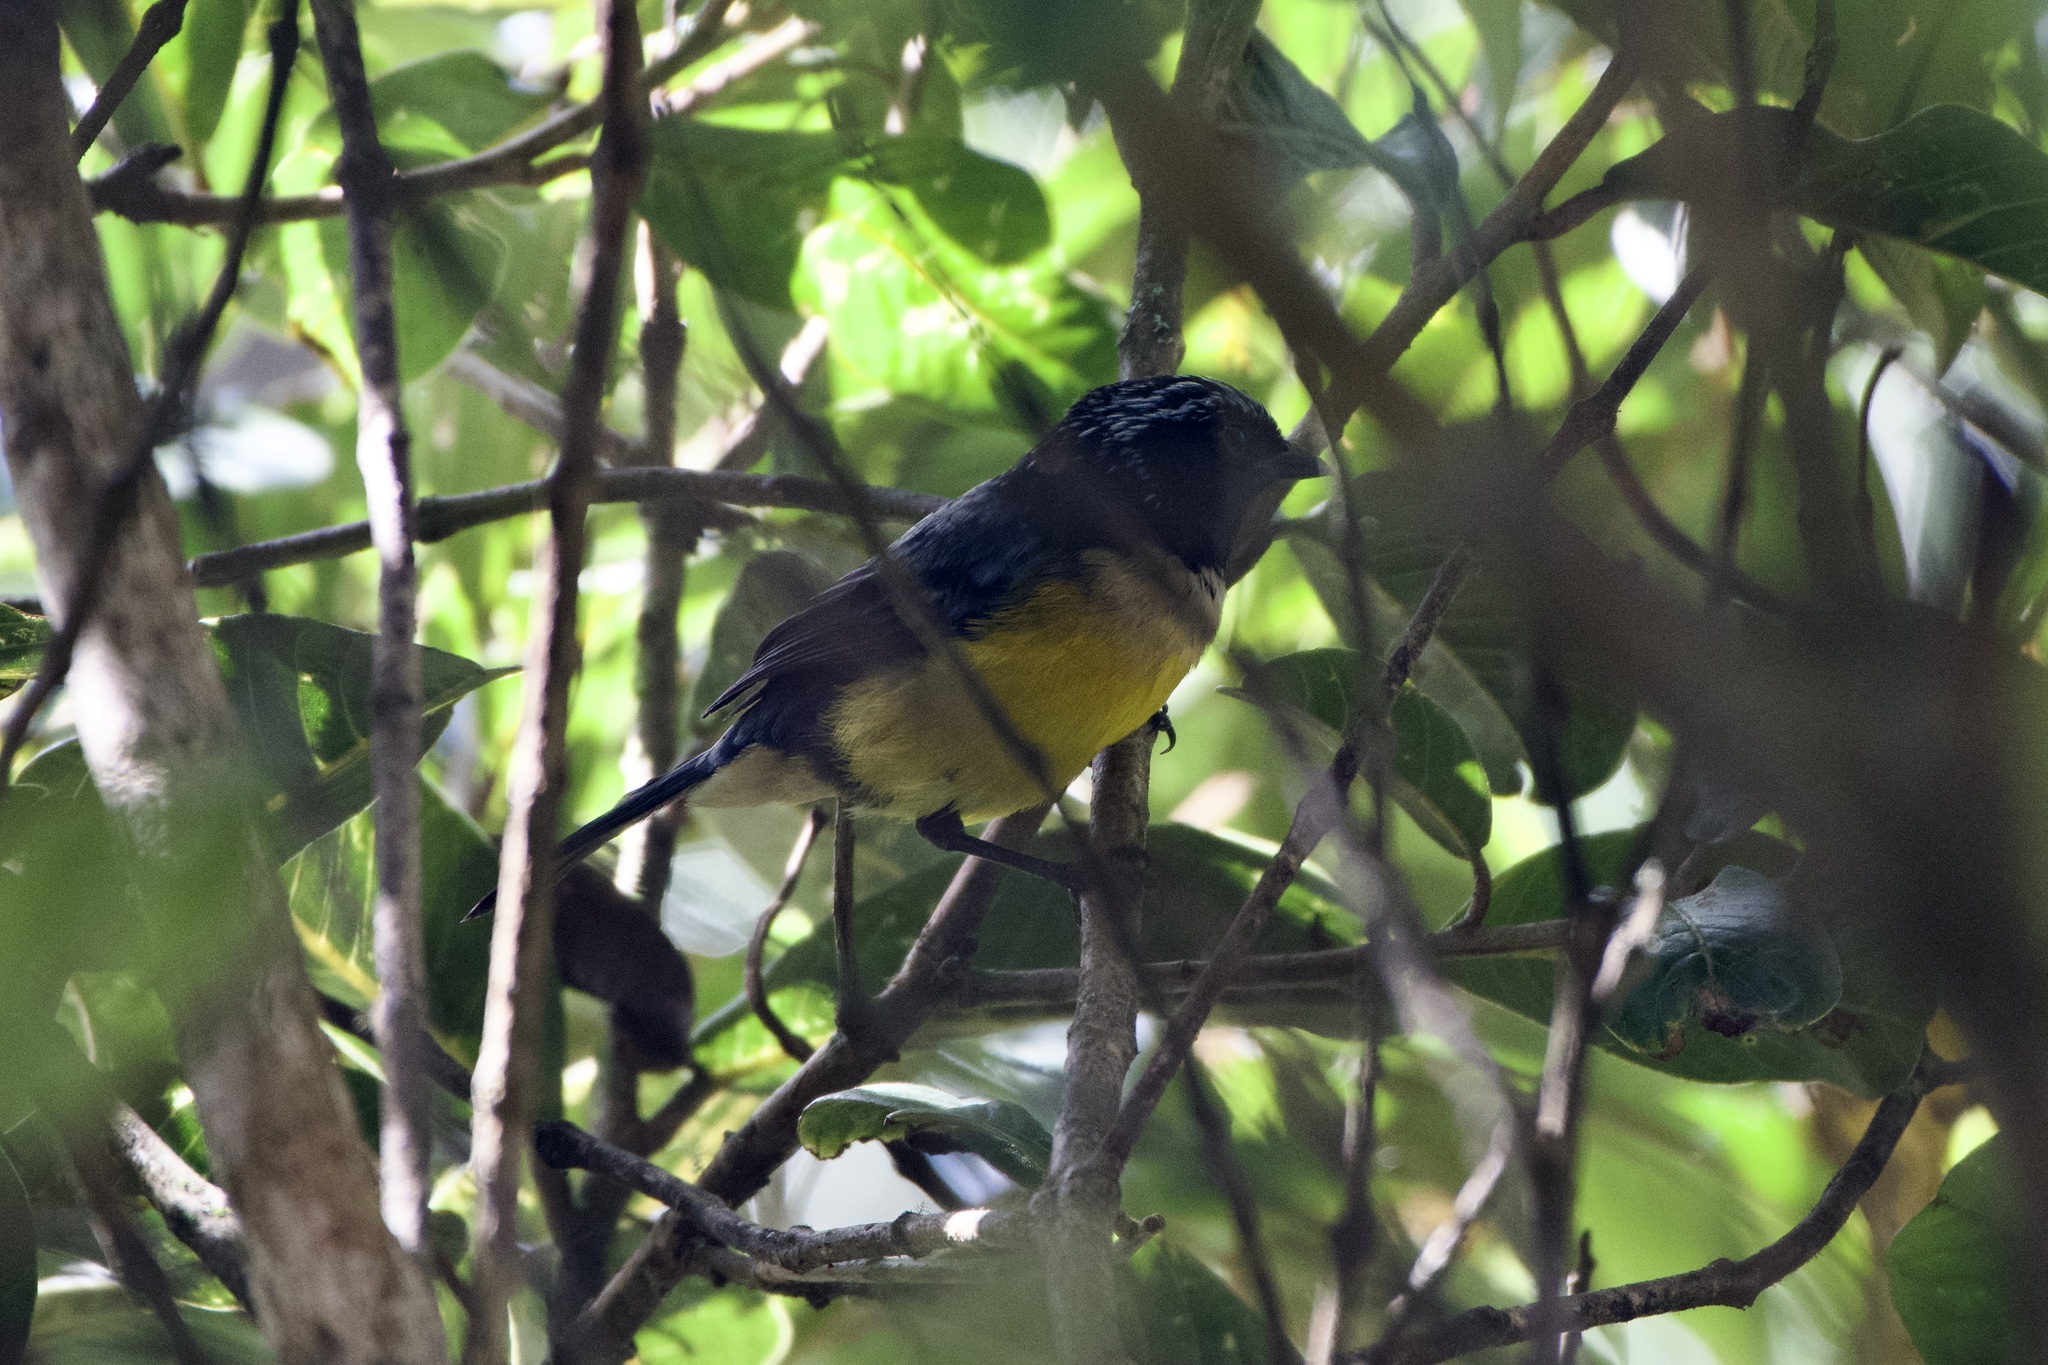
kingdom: Animalia
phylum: Chordata
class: Aves
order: Passeriformes
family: Thraupidae
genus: Dubusia
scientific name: Dubusia taeniata
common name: Buff-breasted mountain tanager
